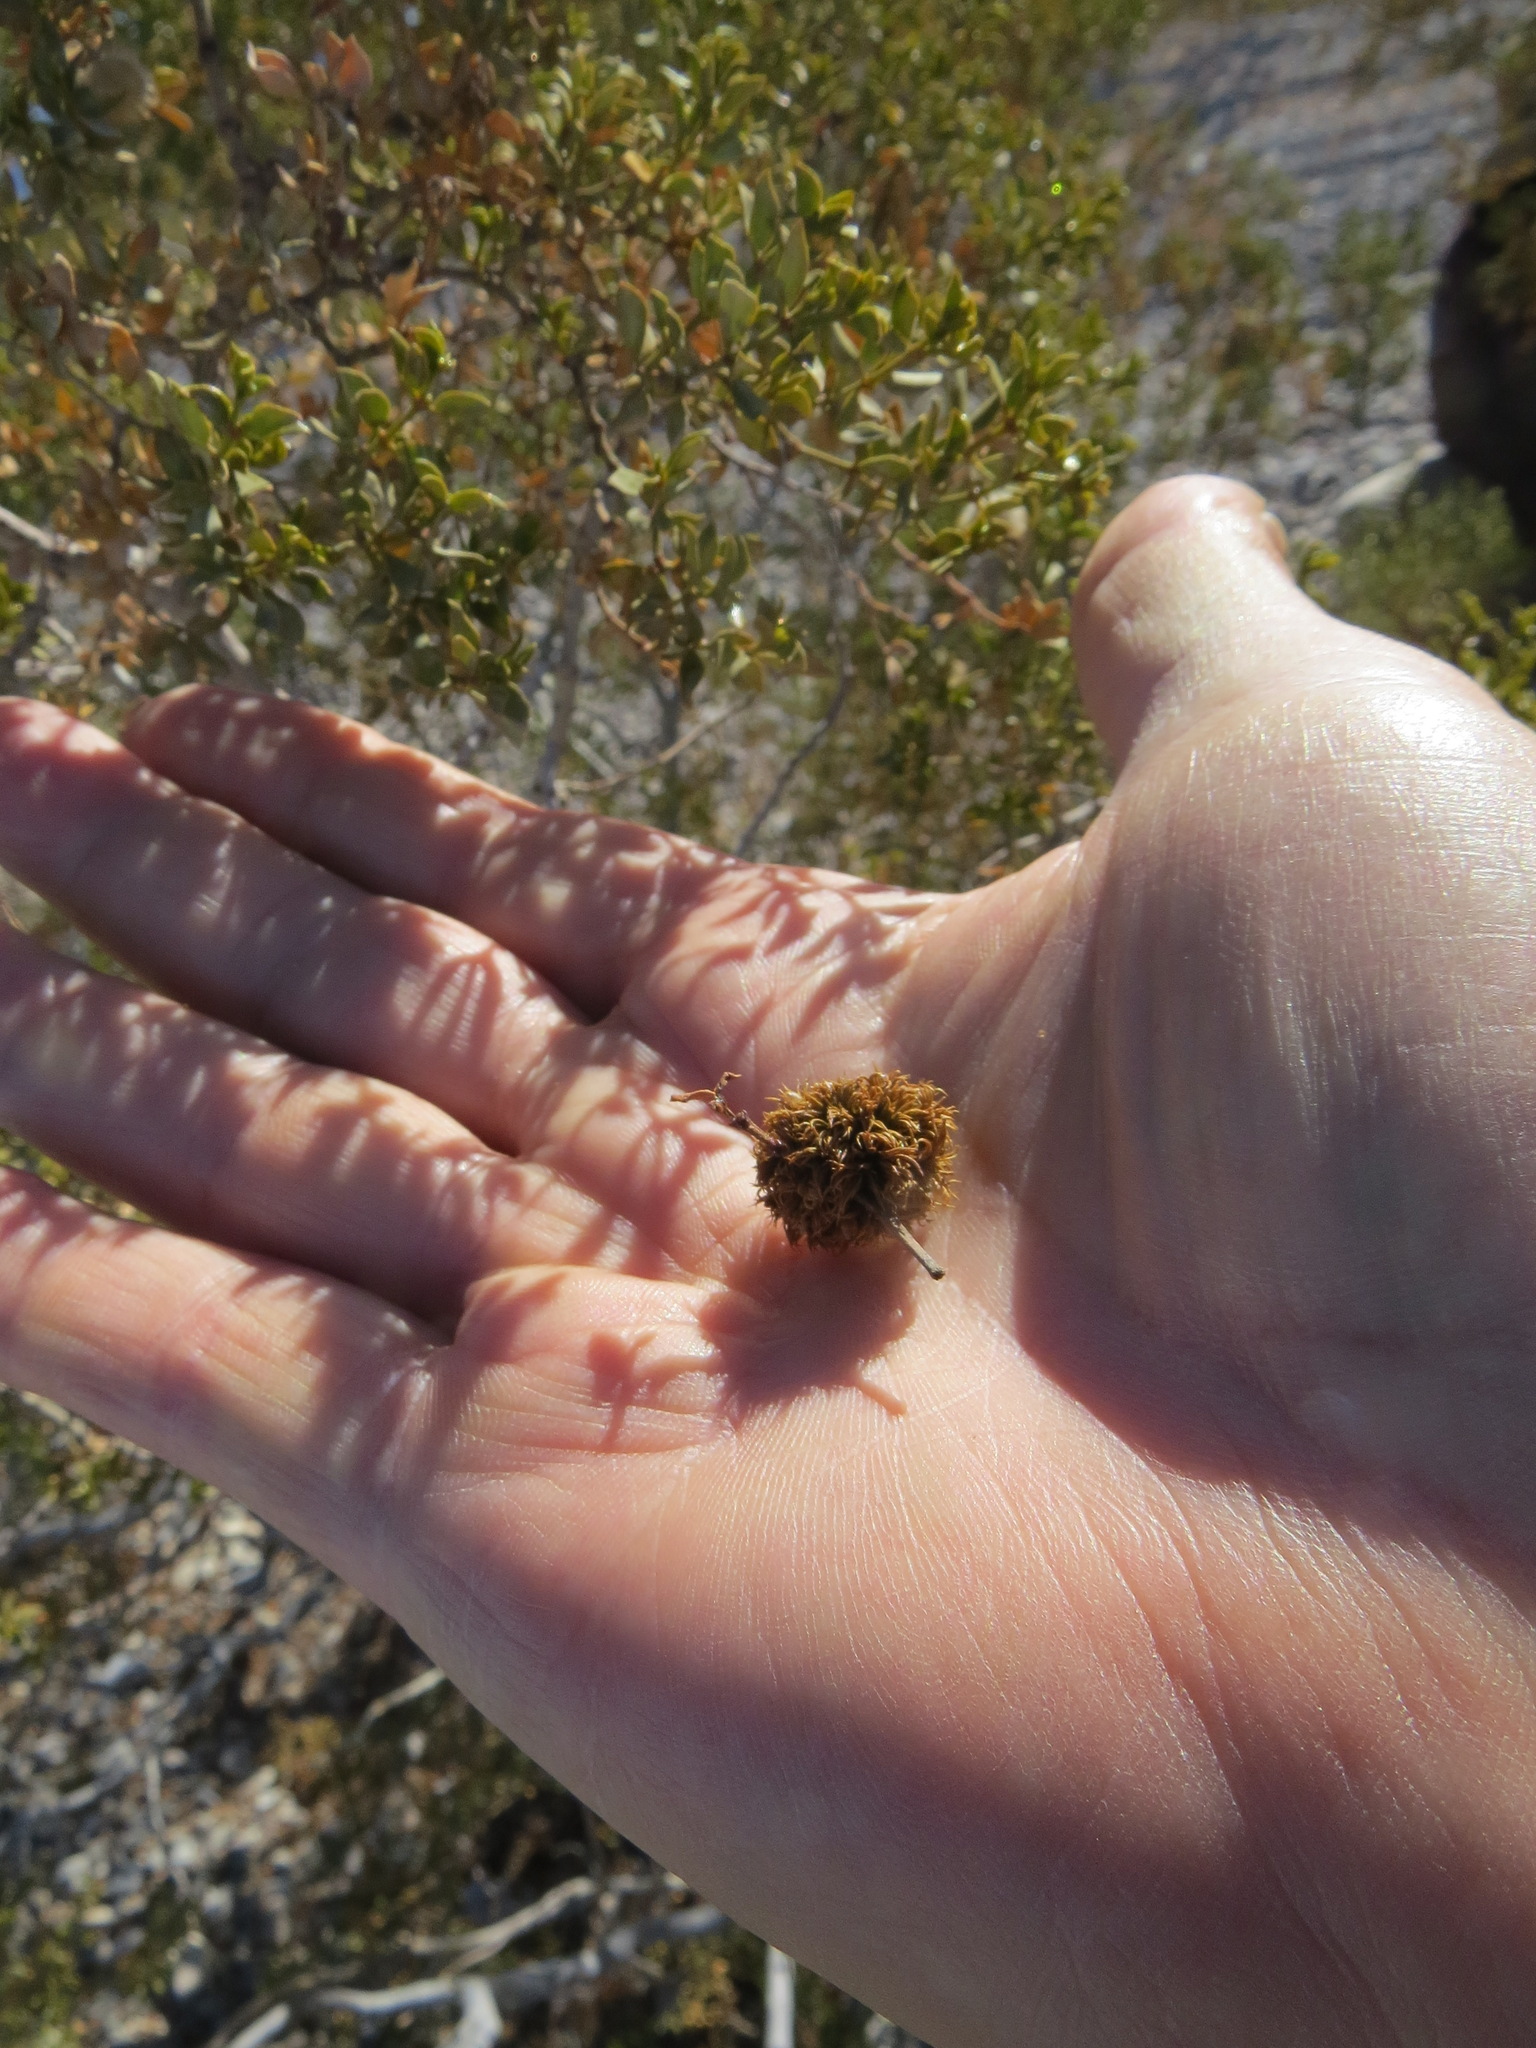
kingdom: Animalia
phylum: Arthropoda
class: Insecta
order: Diptera
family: Cecidomyiidae
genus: Asphondylia
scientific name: Asphondylia auripila
